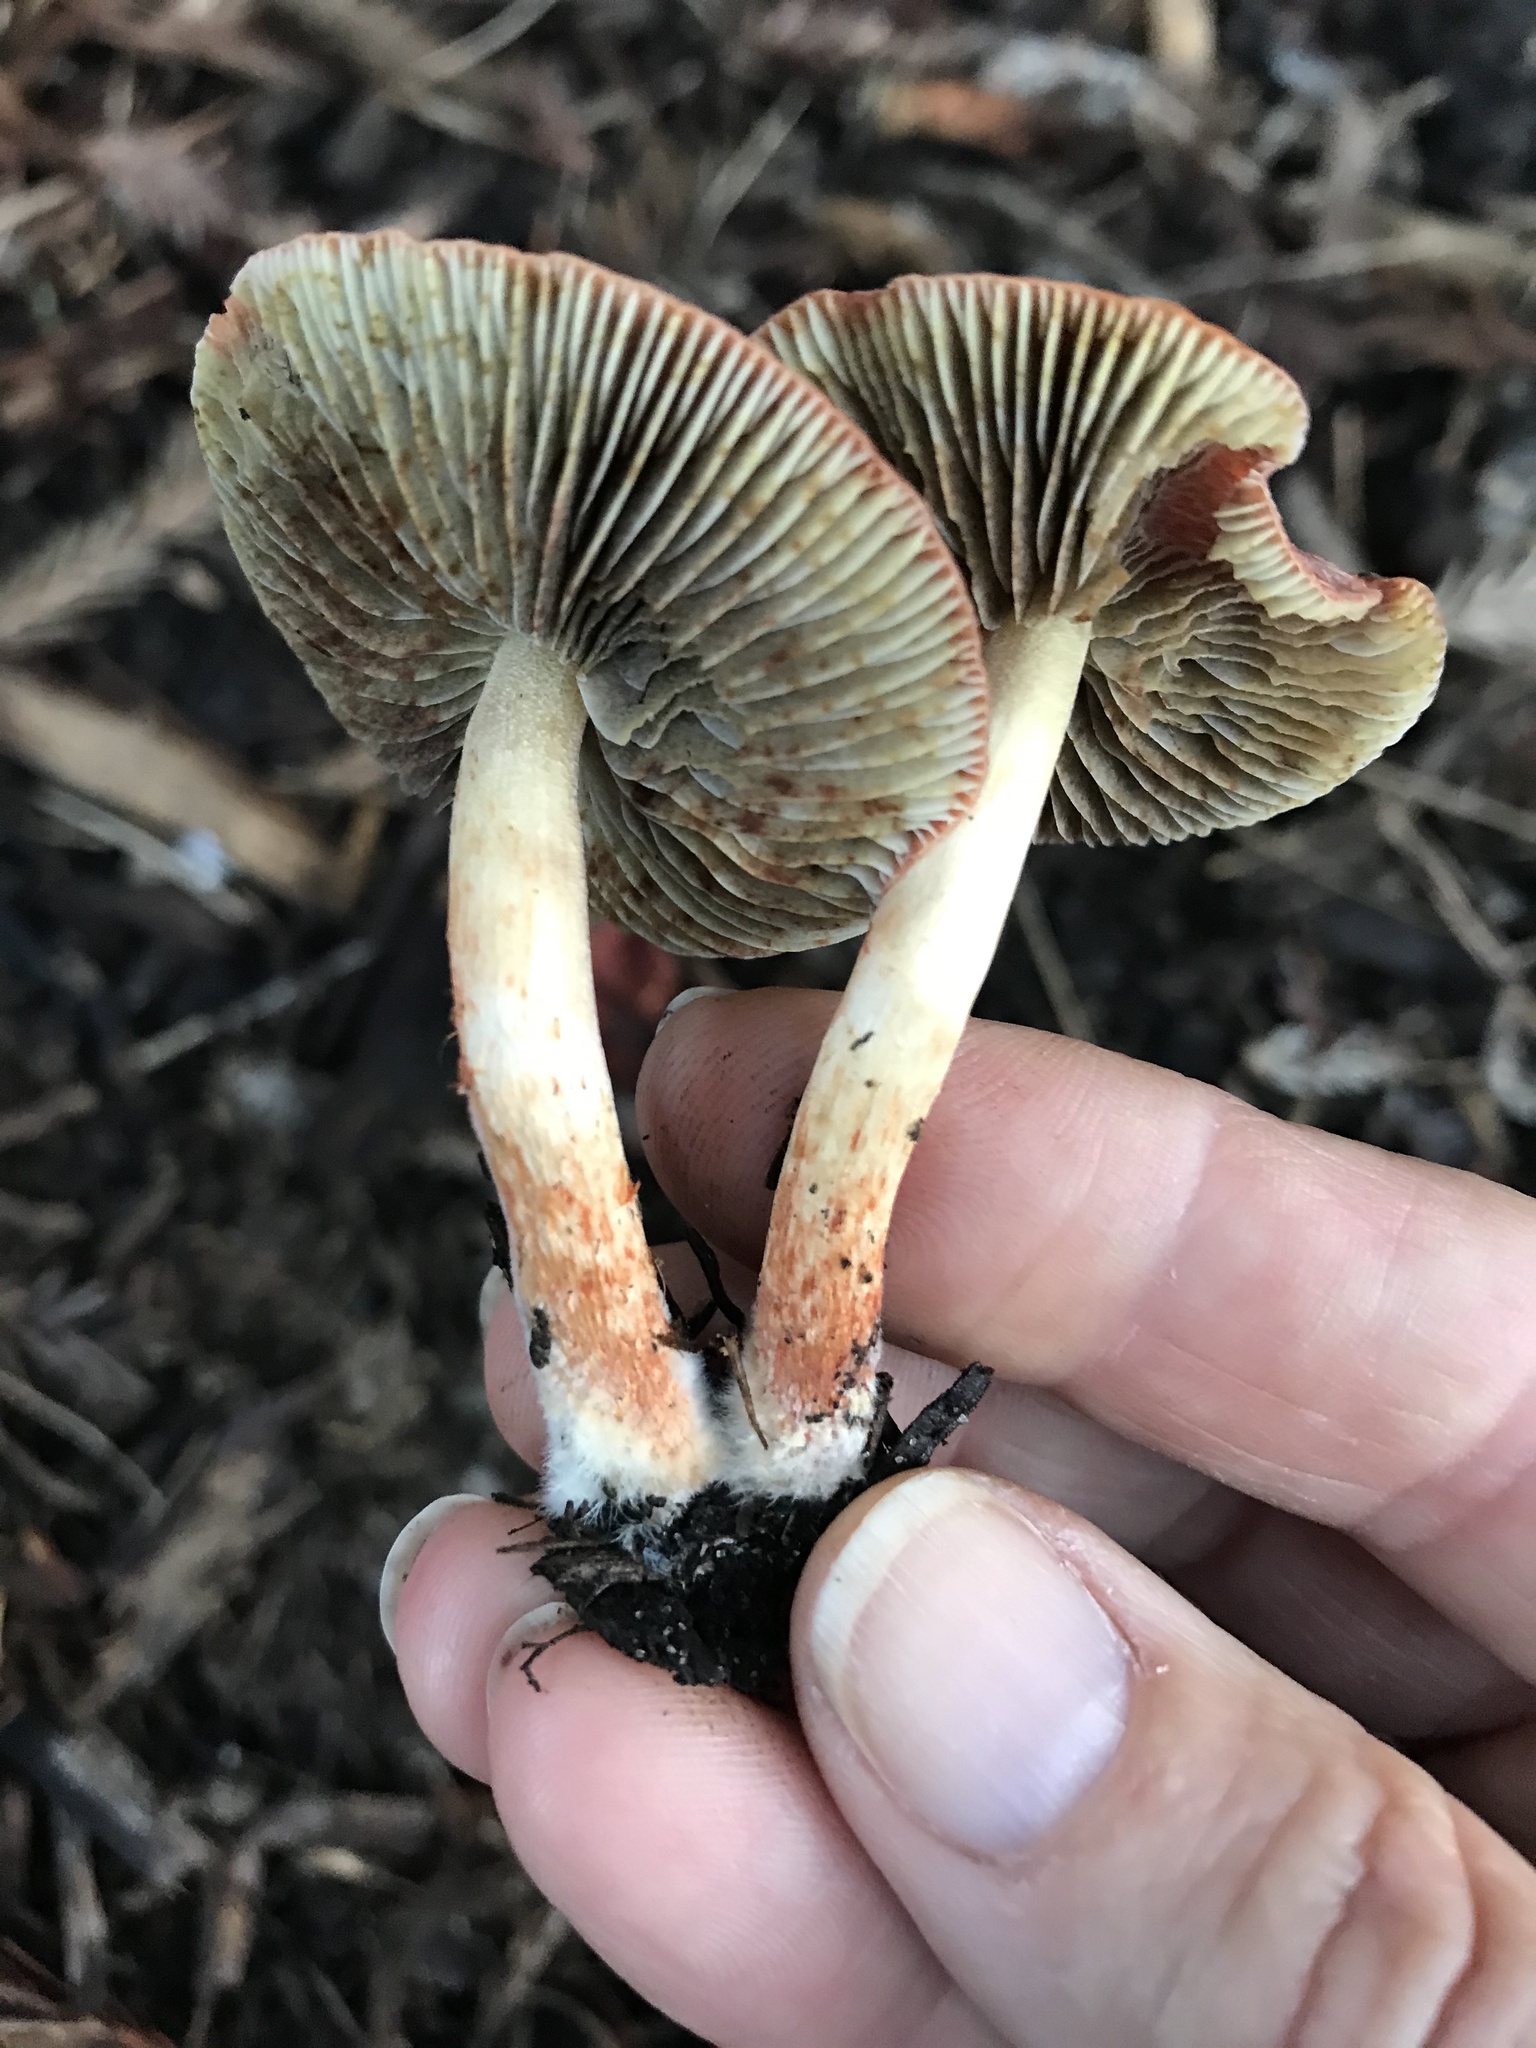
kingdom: Fungi
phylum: Basidiomycota
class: Agaricomycetes
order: Agaricales
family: Strophariaceae
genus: Leratiomyces
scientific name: Leratiomyces ceres
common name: Redlead roundhead
